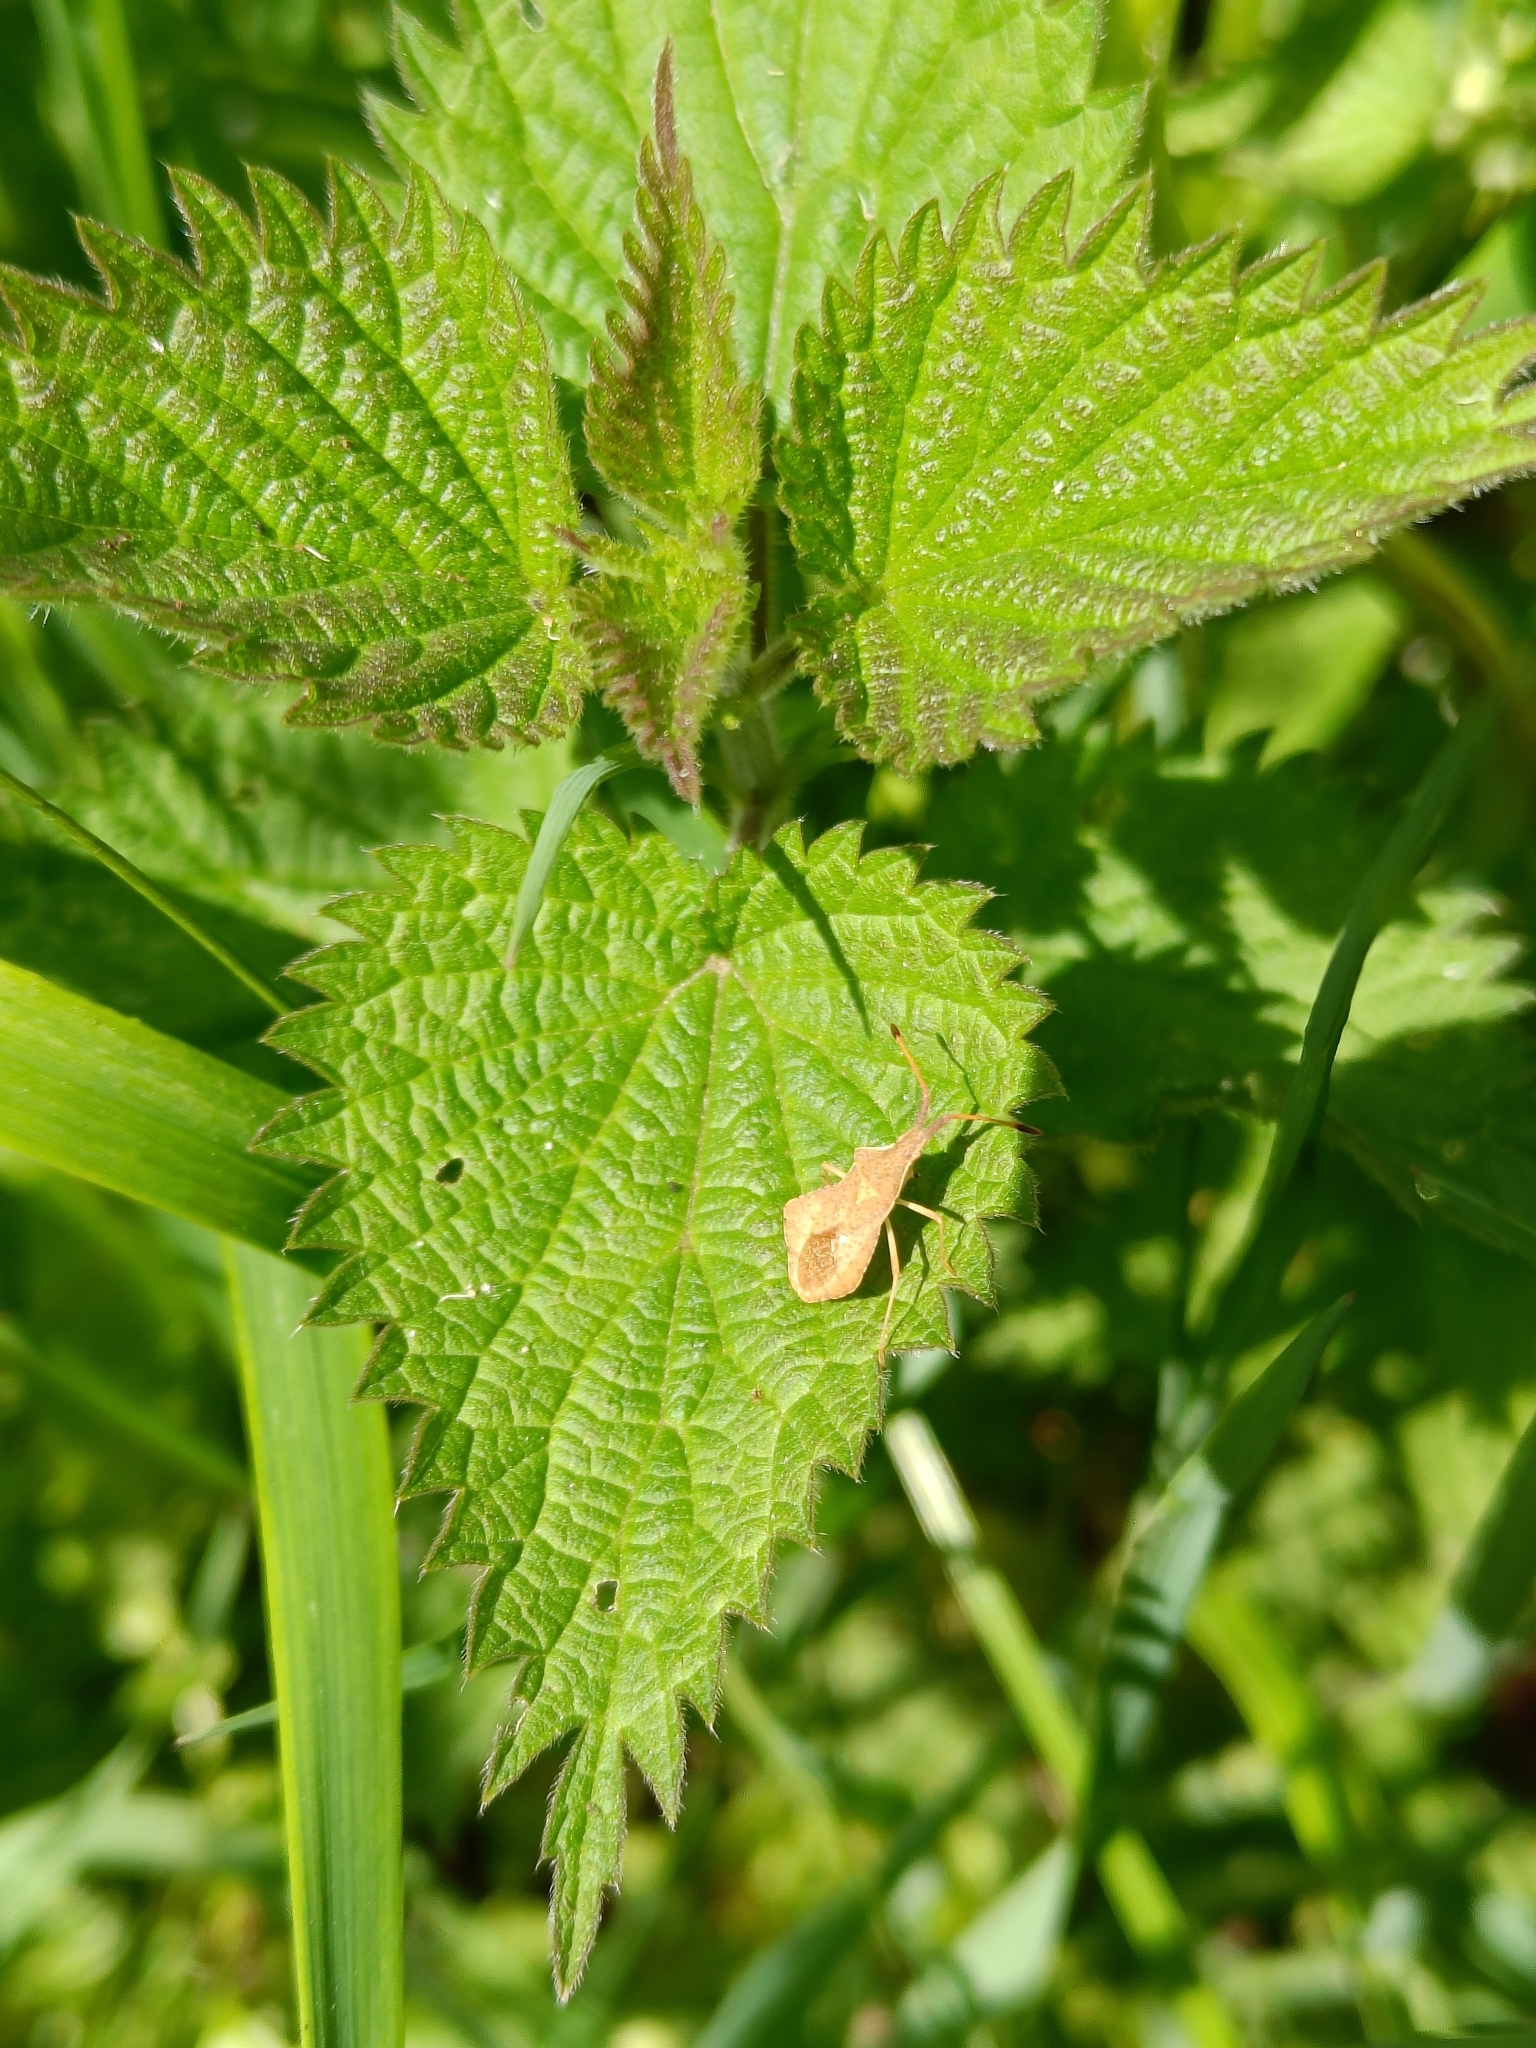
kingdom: Animalia
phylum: Arthropoda
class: Insecta
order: Hemiptera
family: Coreidae
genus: Syromastus
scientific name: Syromastus rhombeus
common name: Rhombic leatherbug
